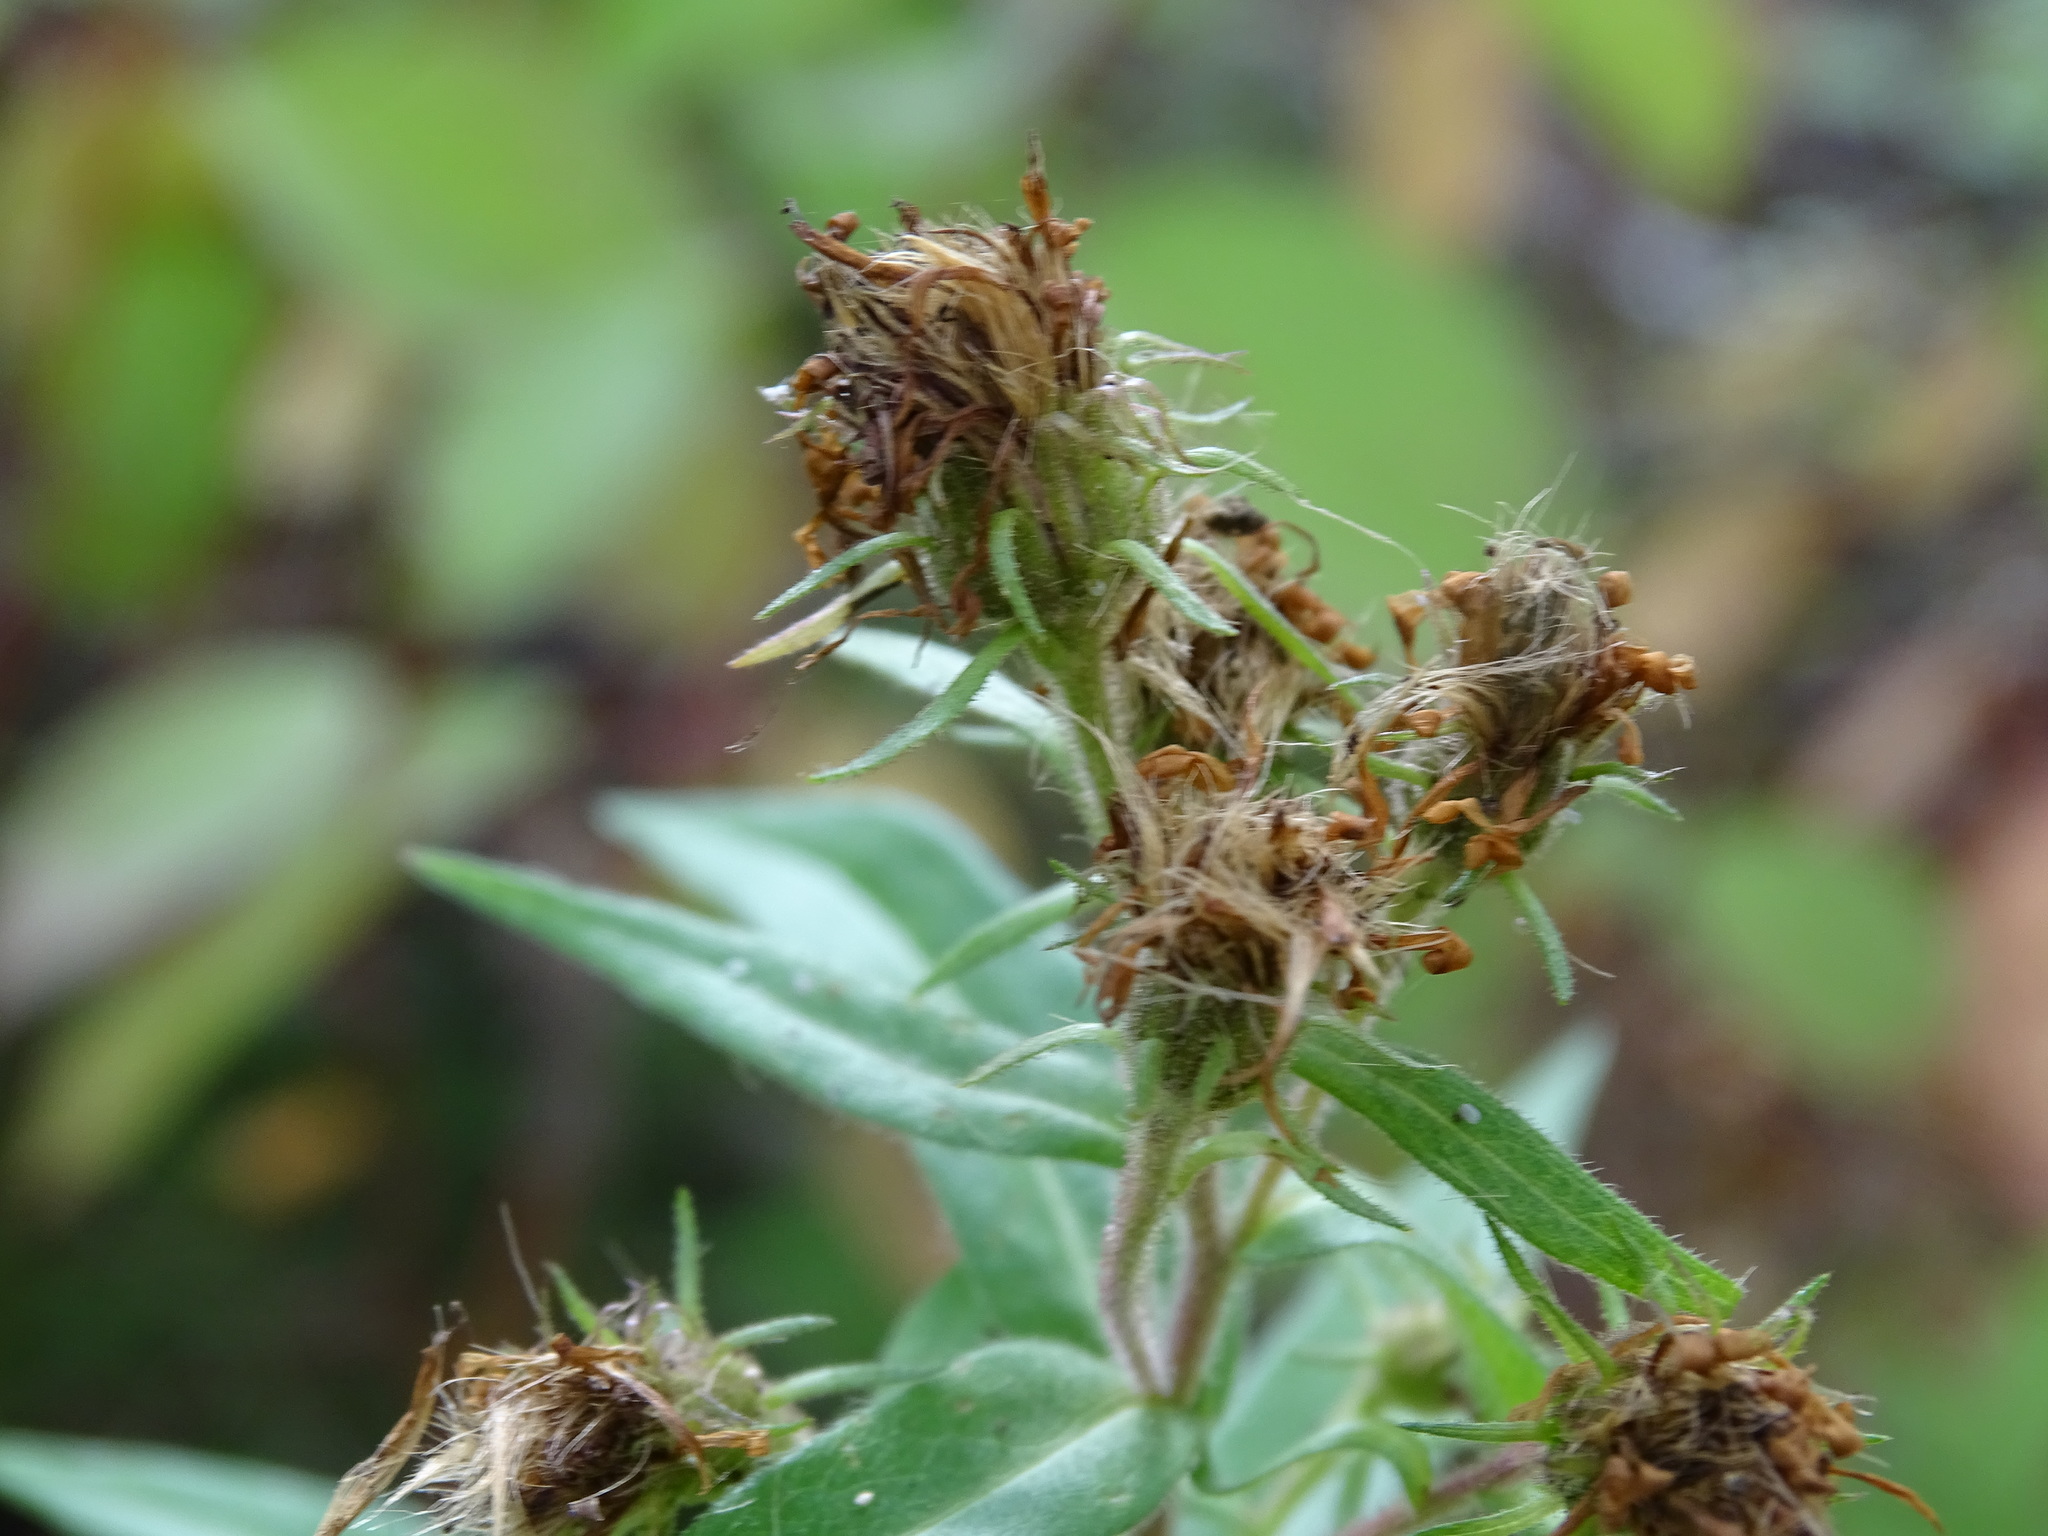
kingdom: Plantae
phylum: Tracheophyta
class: Magnoliopsida
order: Asterales
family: Asteraceae
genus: Canadanthus
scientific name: Canadanthus modestus
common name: Great northern aster
